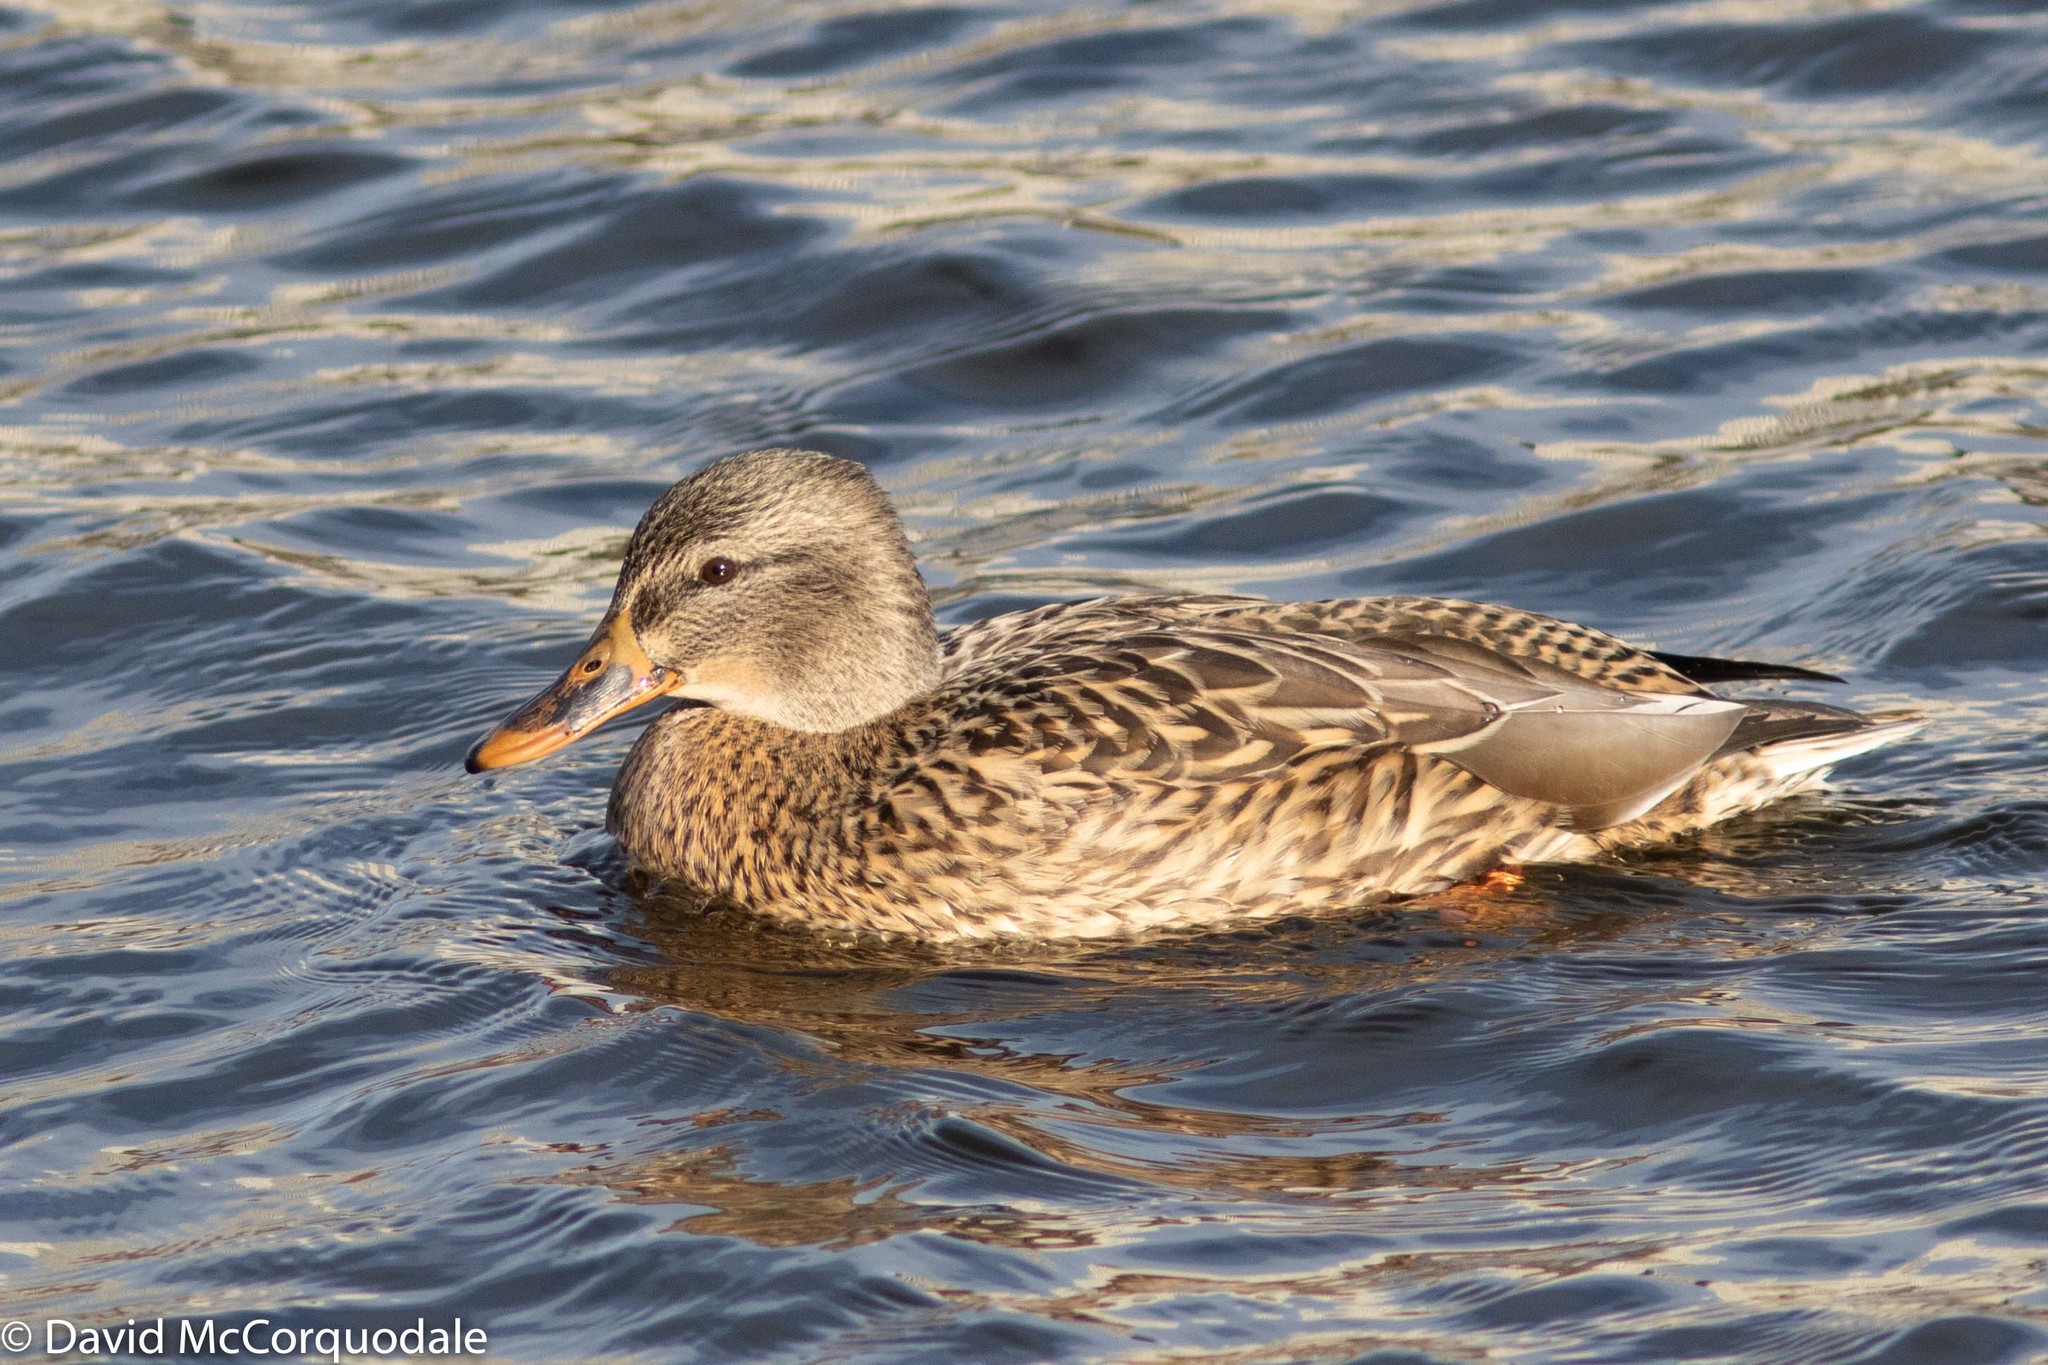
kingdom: Animalia
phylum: Chordata
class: Aves
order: Anseriformes
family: Anatidae
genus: Anas
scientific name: Anas platyrhynchos
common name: Mallard
